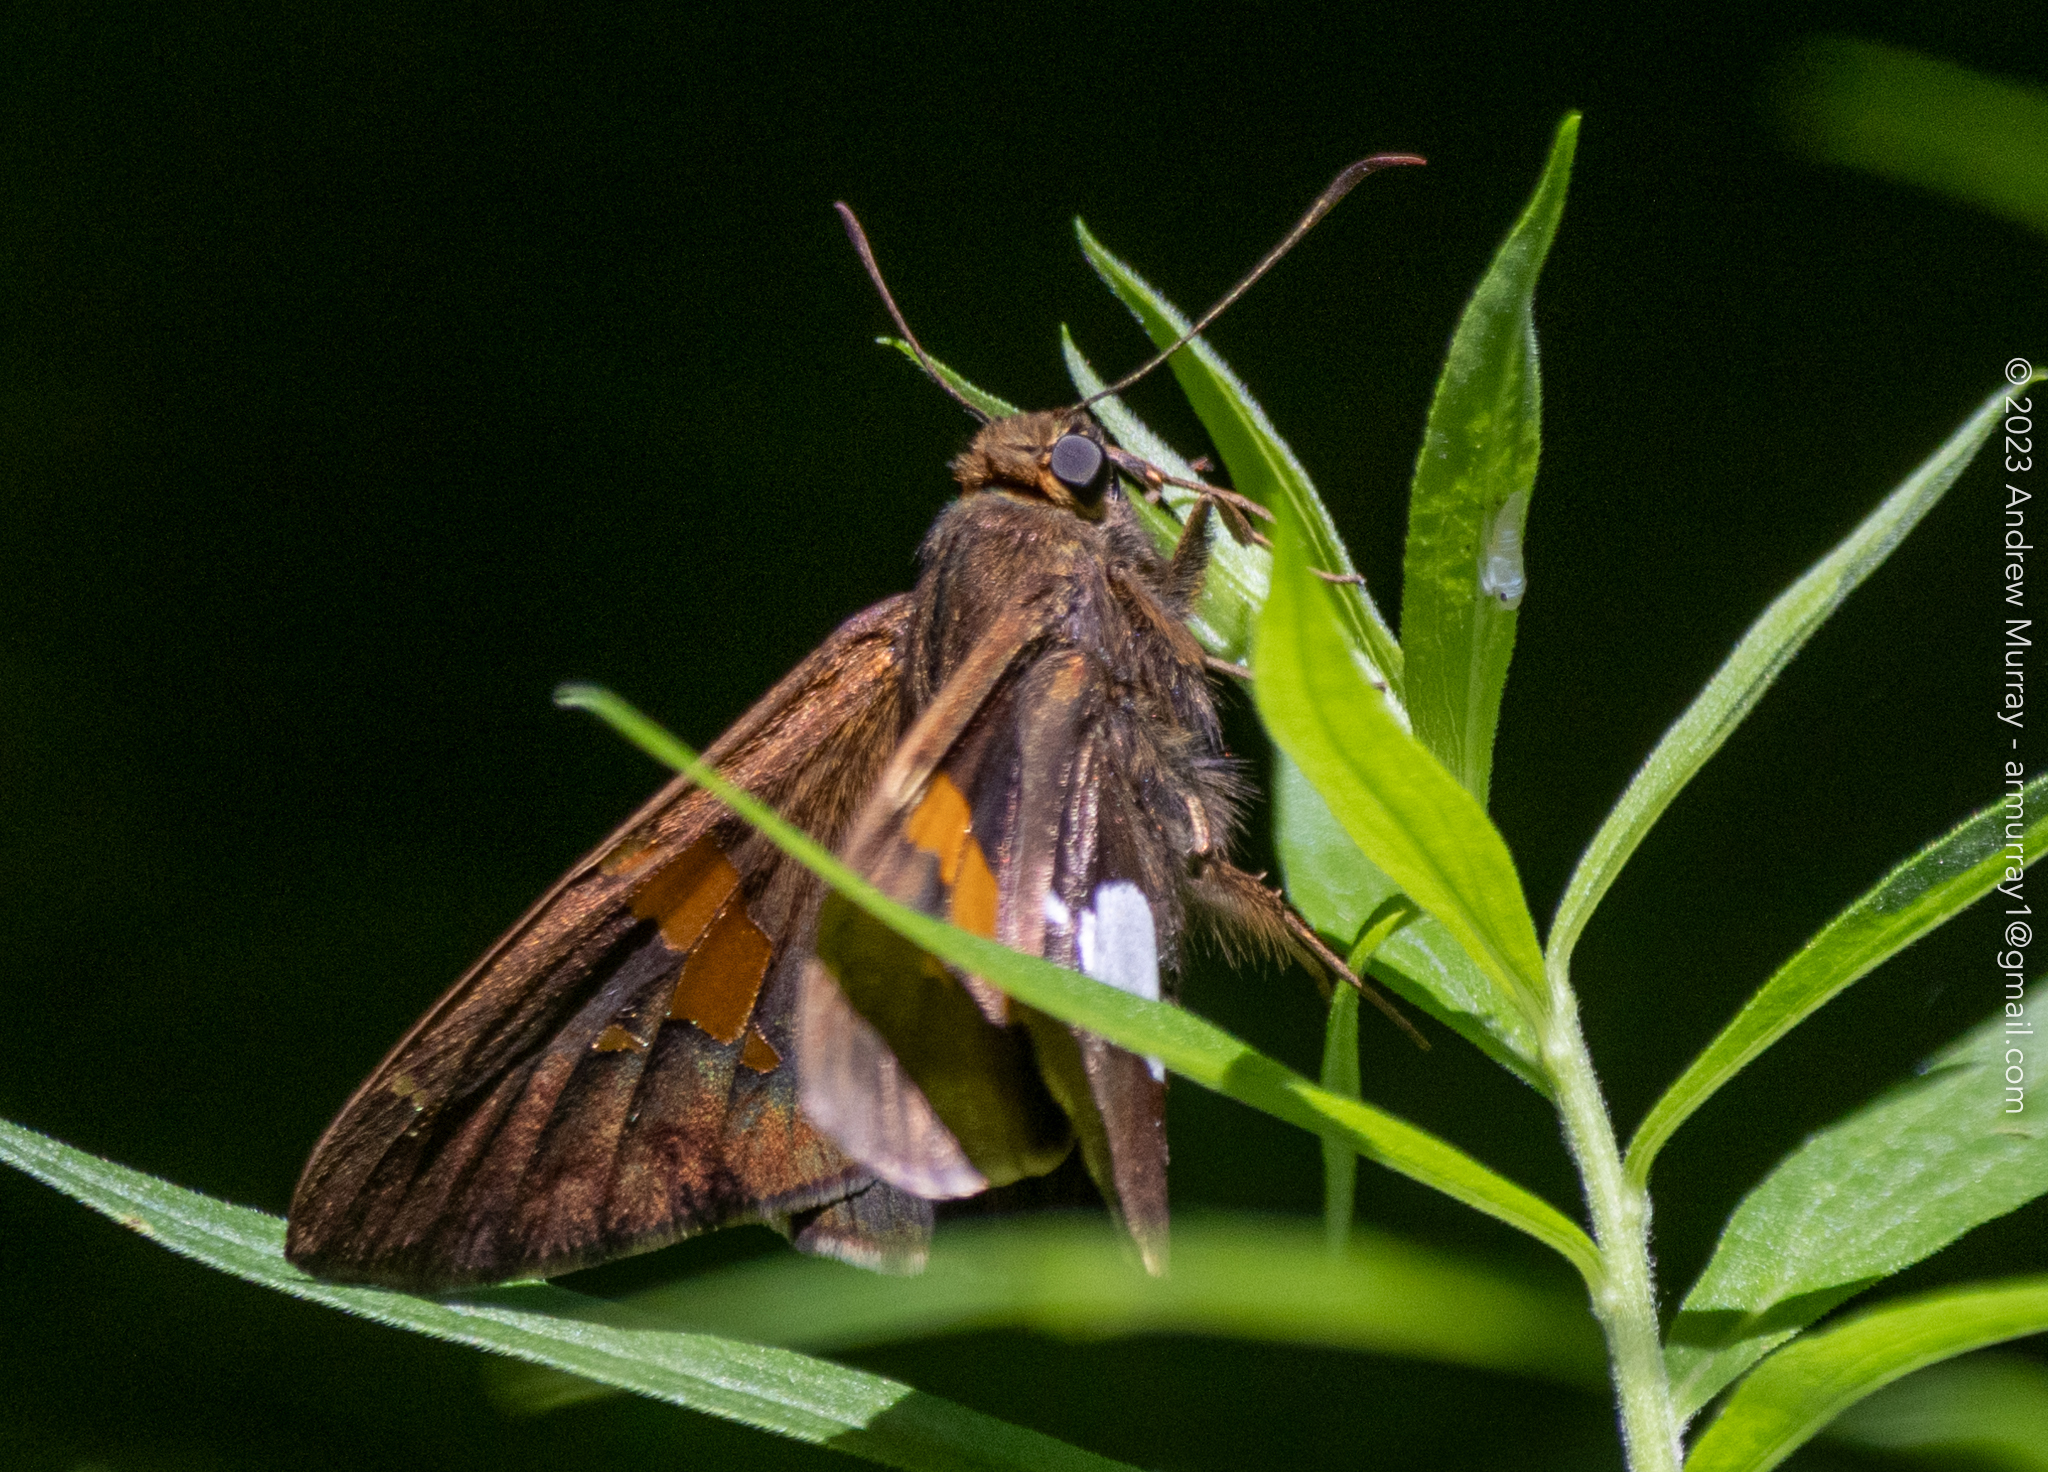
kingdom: Animalia
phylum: Arthropoda
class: Insecta
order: Lepidoptera
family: Hesperiidae
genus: Epargyreus
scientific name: Epargyreus clarus
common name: Silver-spotted skipper
